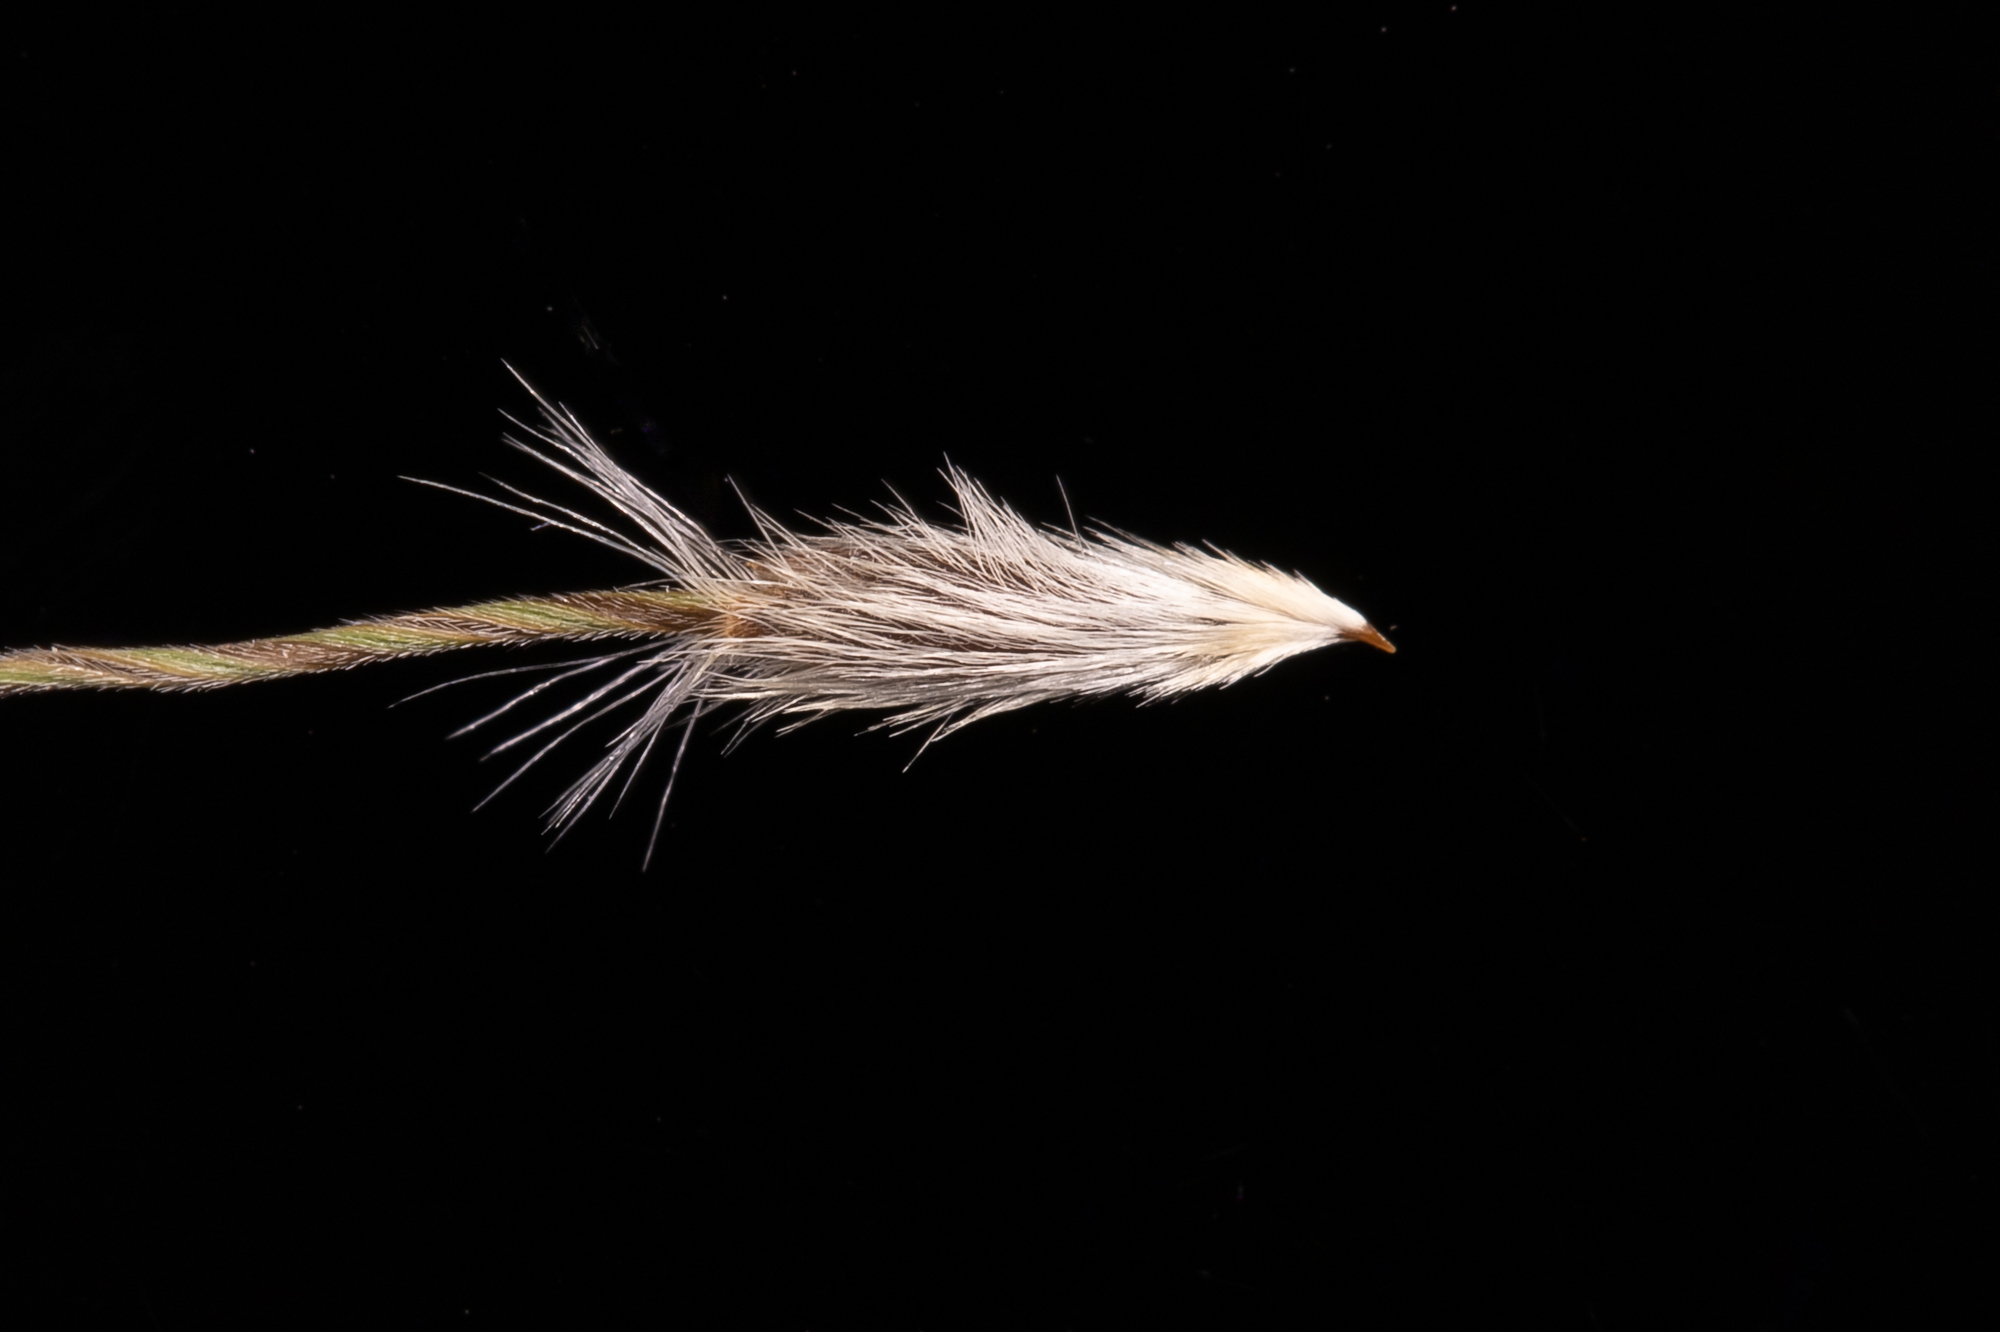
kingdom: Plantae
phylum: Tracheophyta
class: Liliopsida
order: Poales
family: Poaceae
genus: Austrostipa
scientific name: Austrostipa blackii
